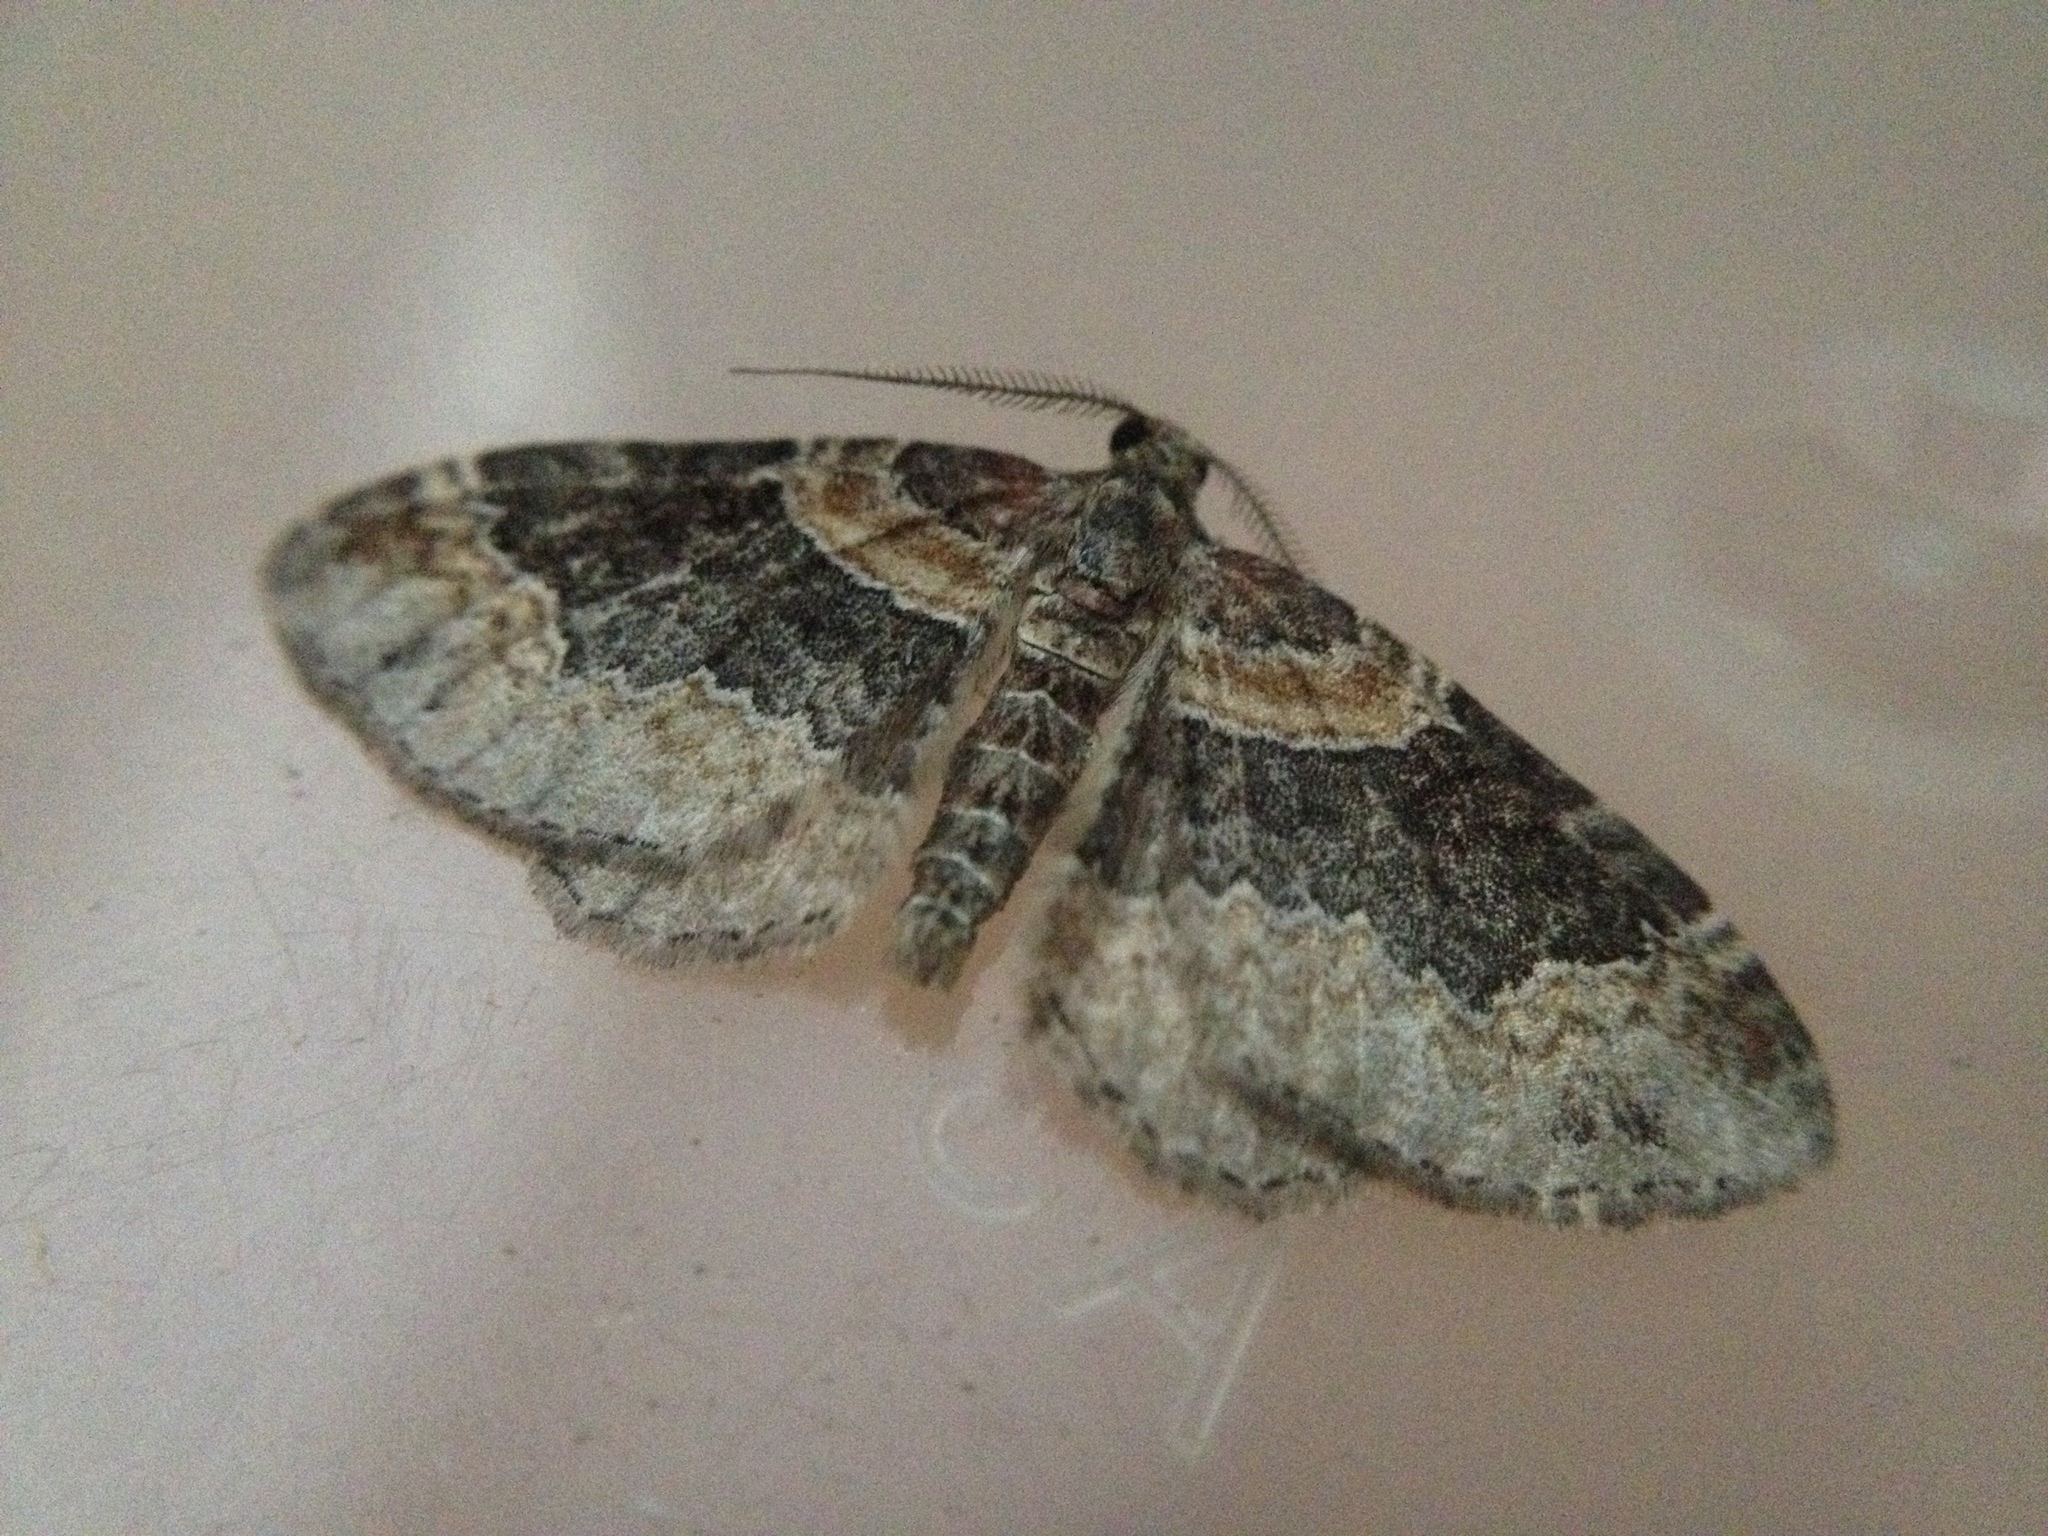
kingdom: Animalia
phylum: Arthropoda
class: Insecta
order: Lepidoptera
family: Geometridae
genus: Xanthorhoe
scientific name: Xanthorhoe ferrugata
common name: Dark-barred twin-spot carpet
